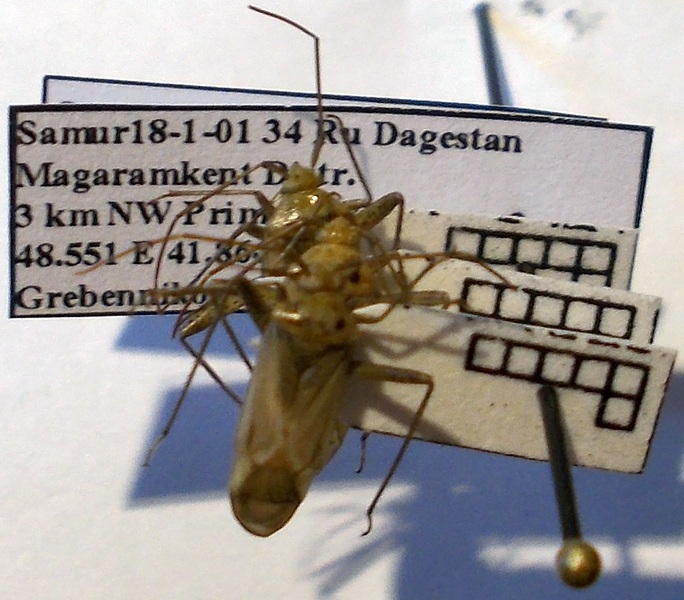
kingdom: Animalia
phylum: Arthropoda
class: Insecta
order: Hemiptera
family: Miridae
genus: Adelphocoris
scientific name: Adelphocoris lineolatus
